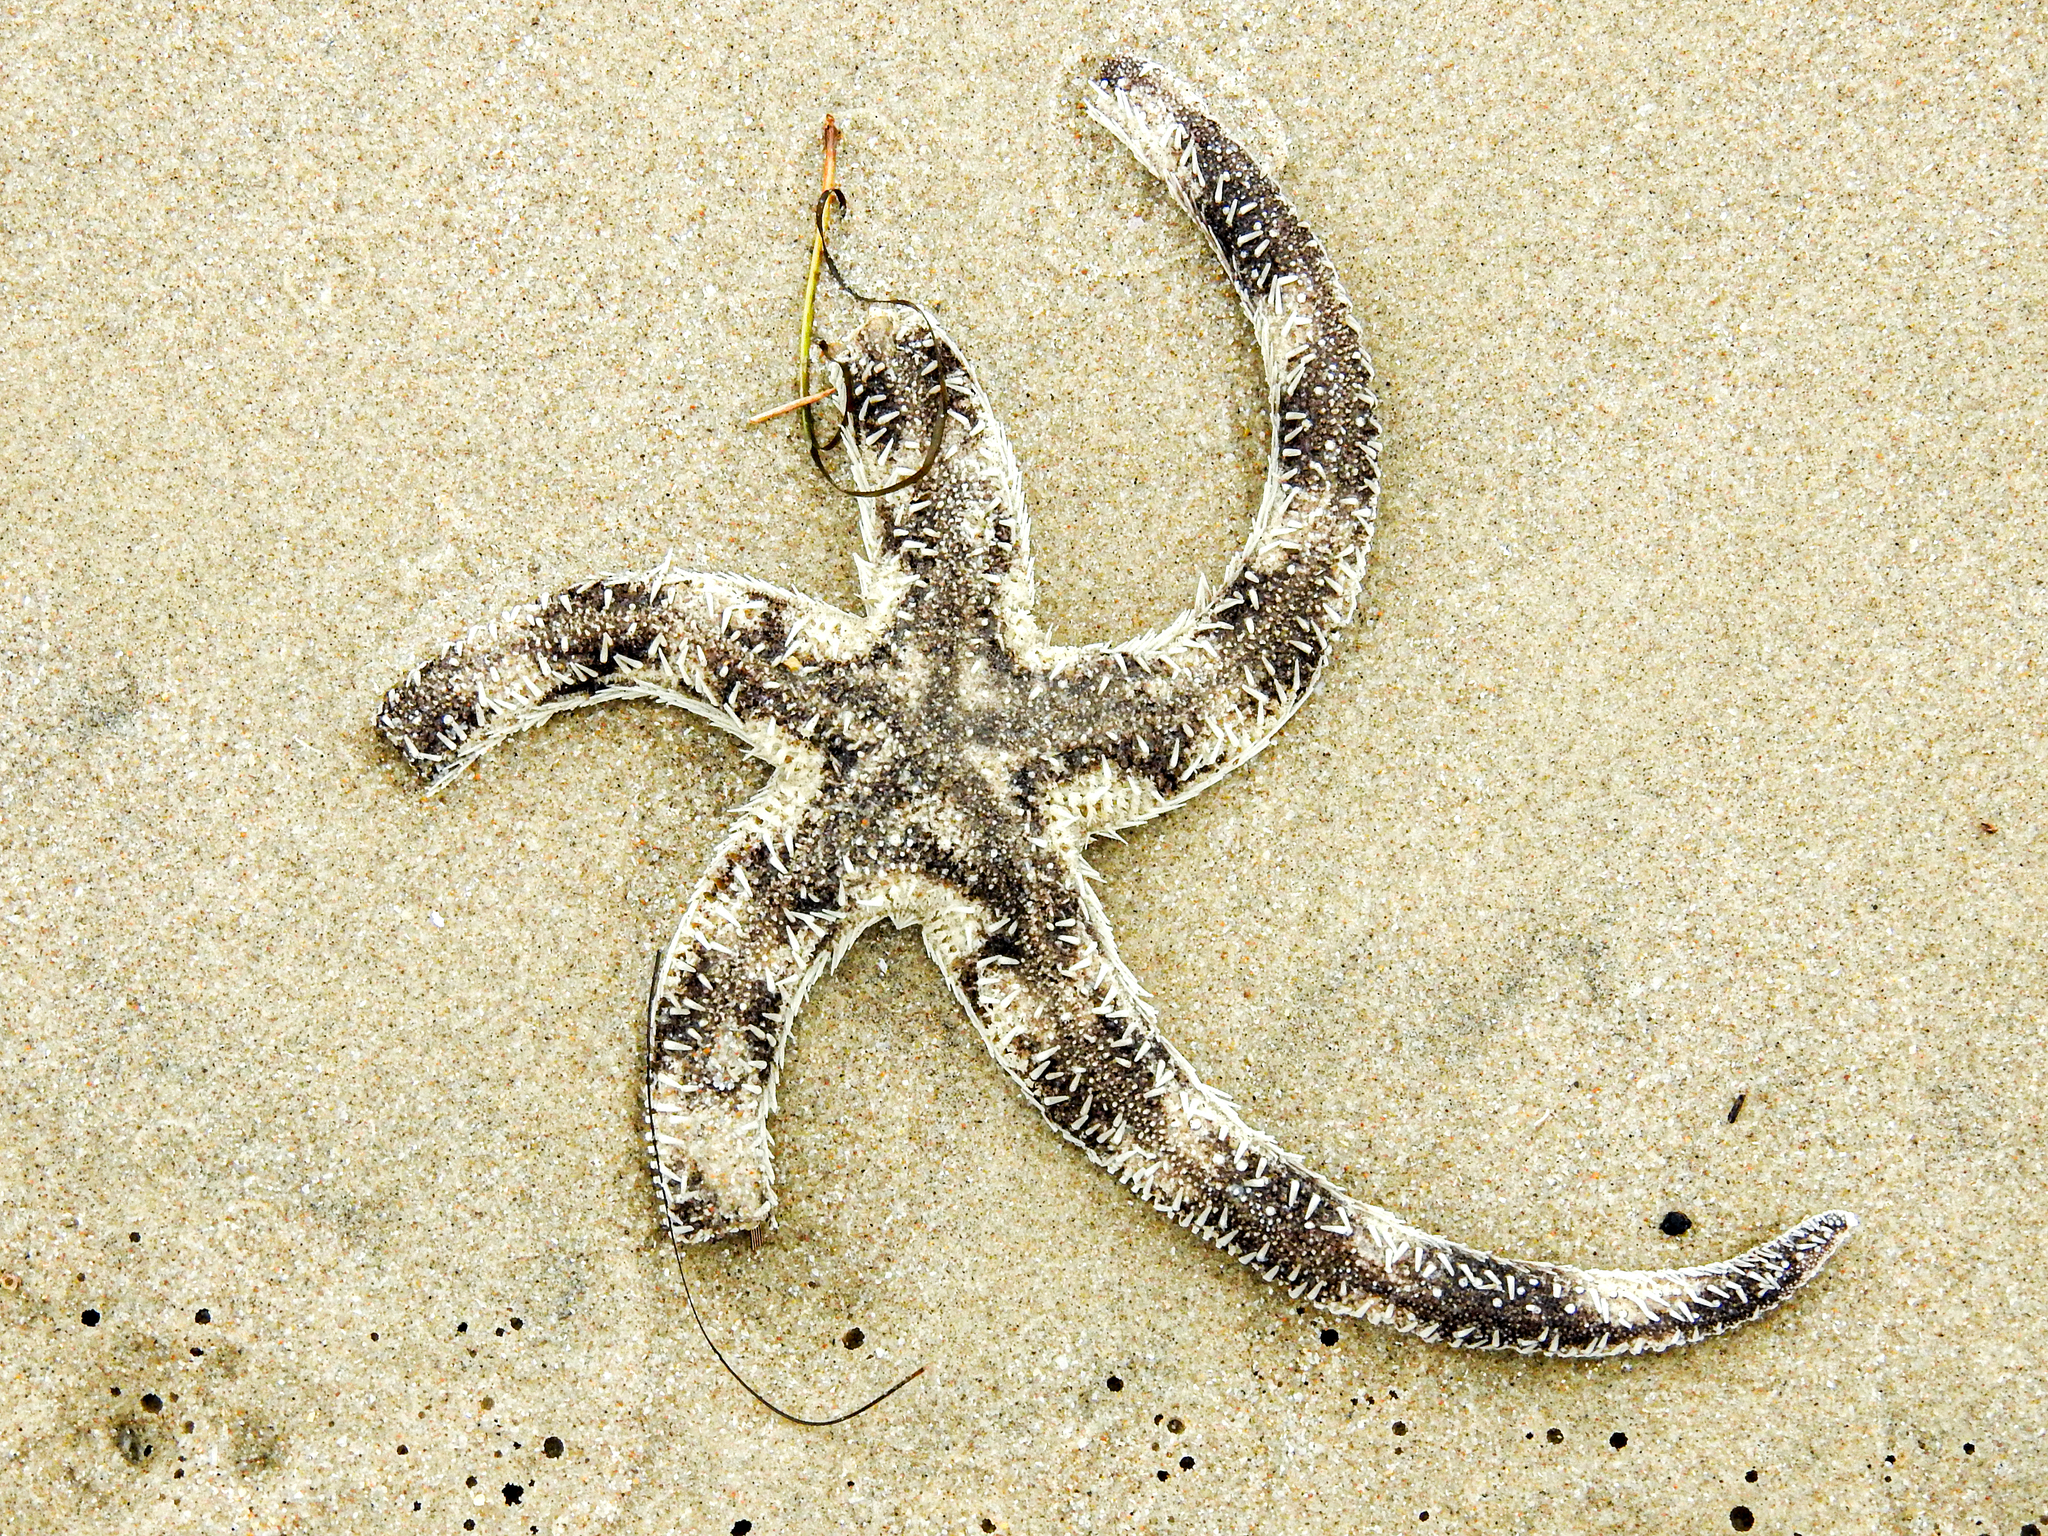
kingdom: Animalia
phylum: Echinodermata
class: Asteroidea
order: Paxillosida
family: Luidiidae
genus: Luidia
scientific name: Luidia alternata
